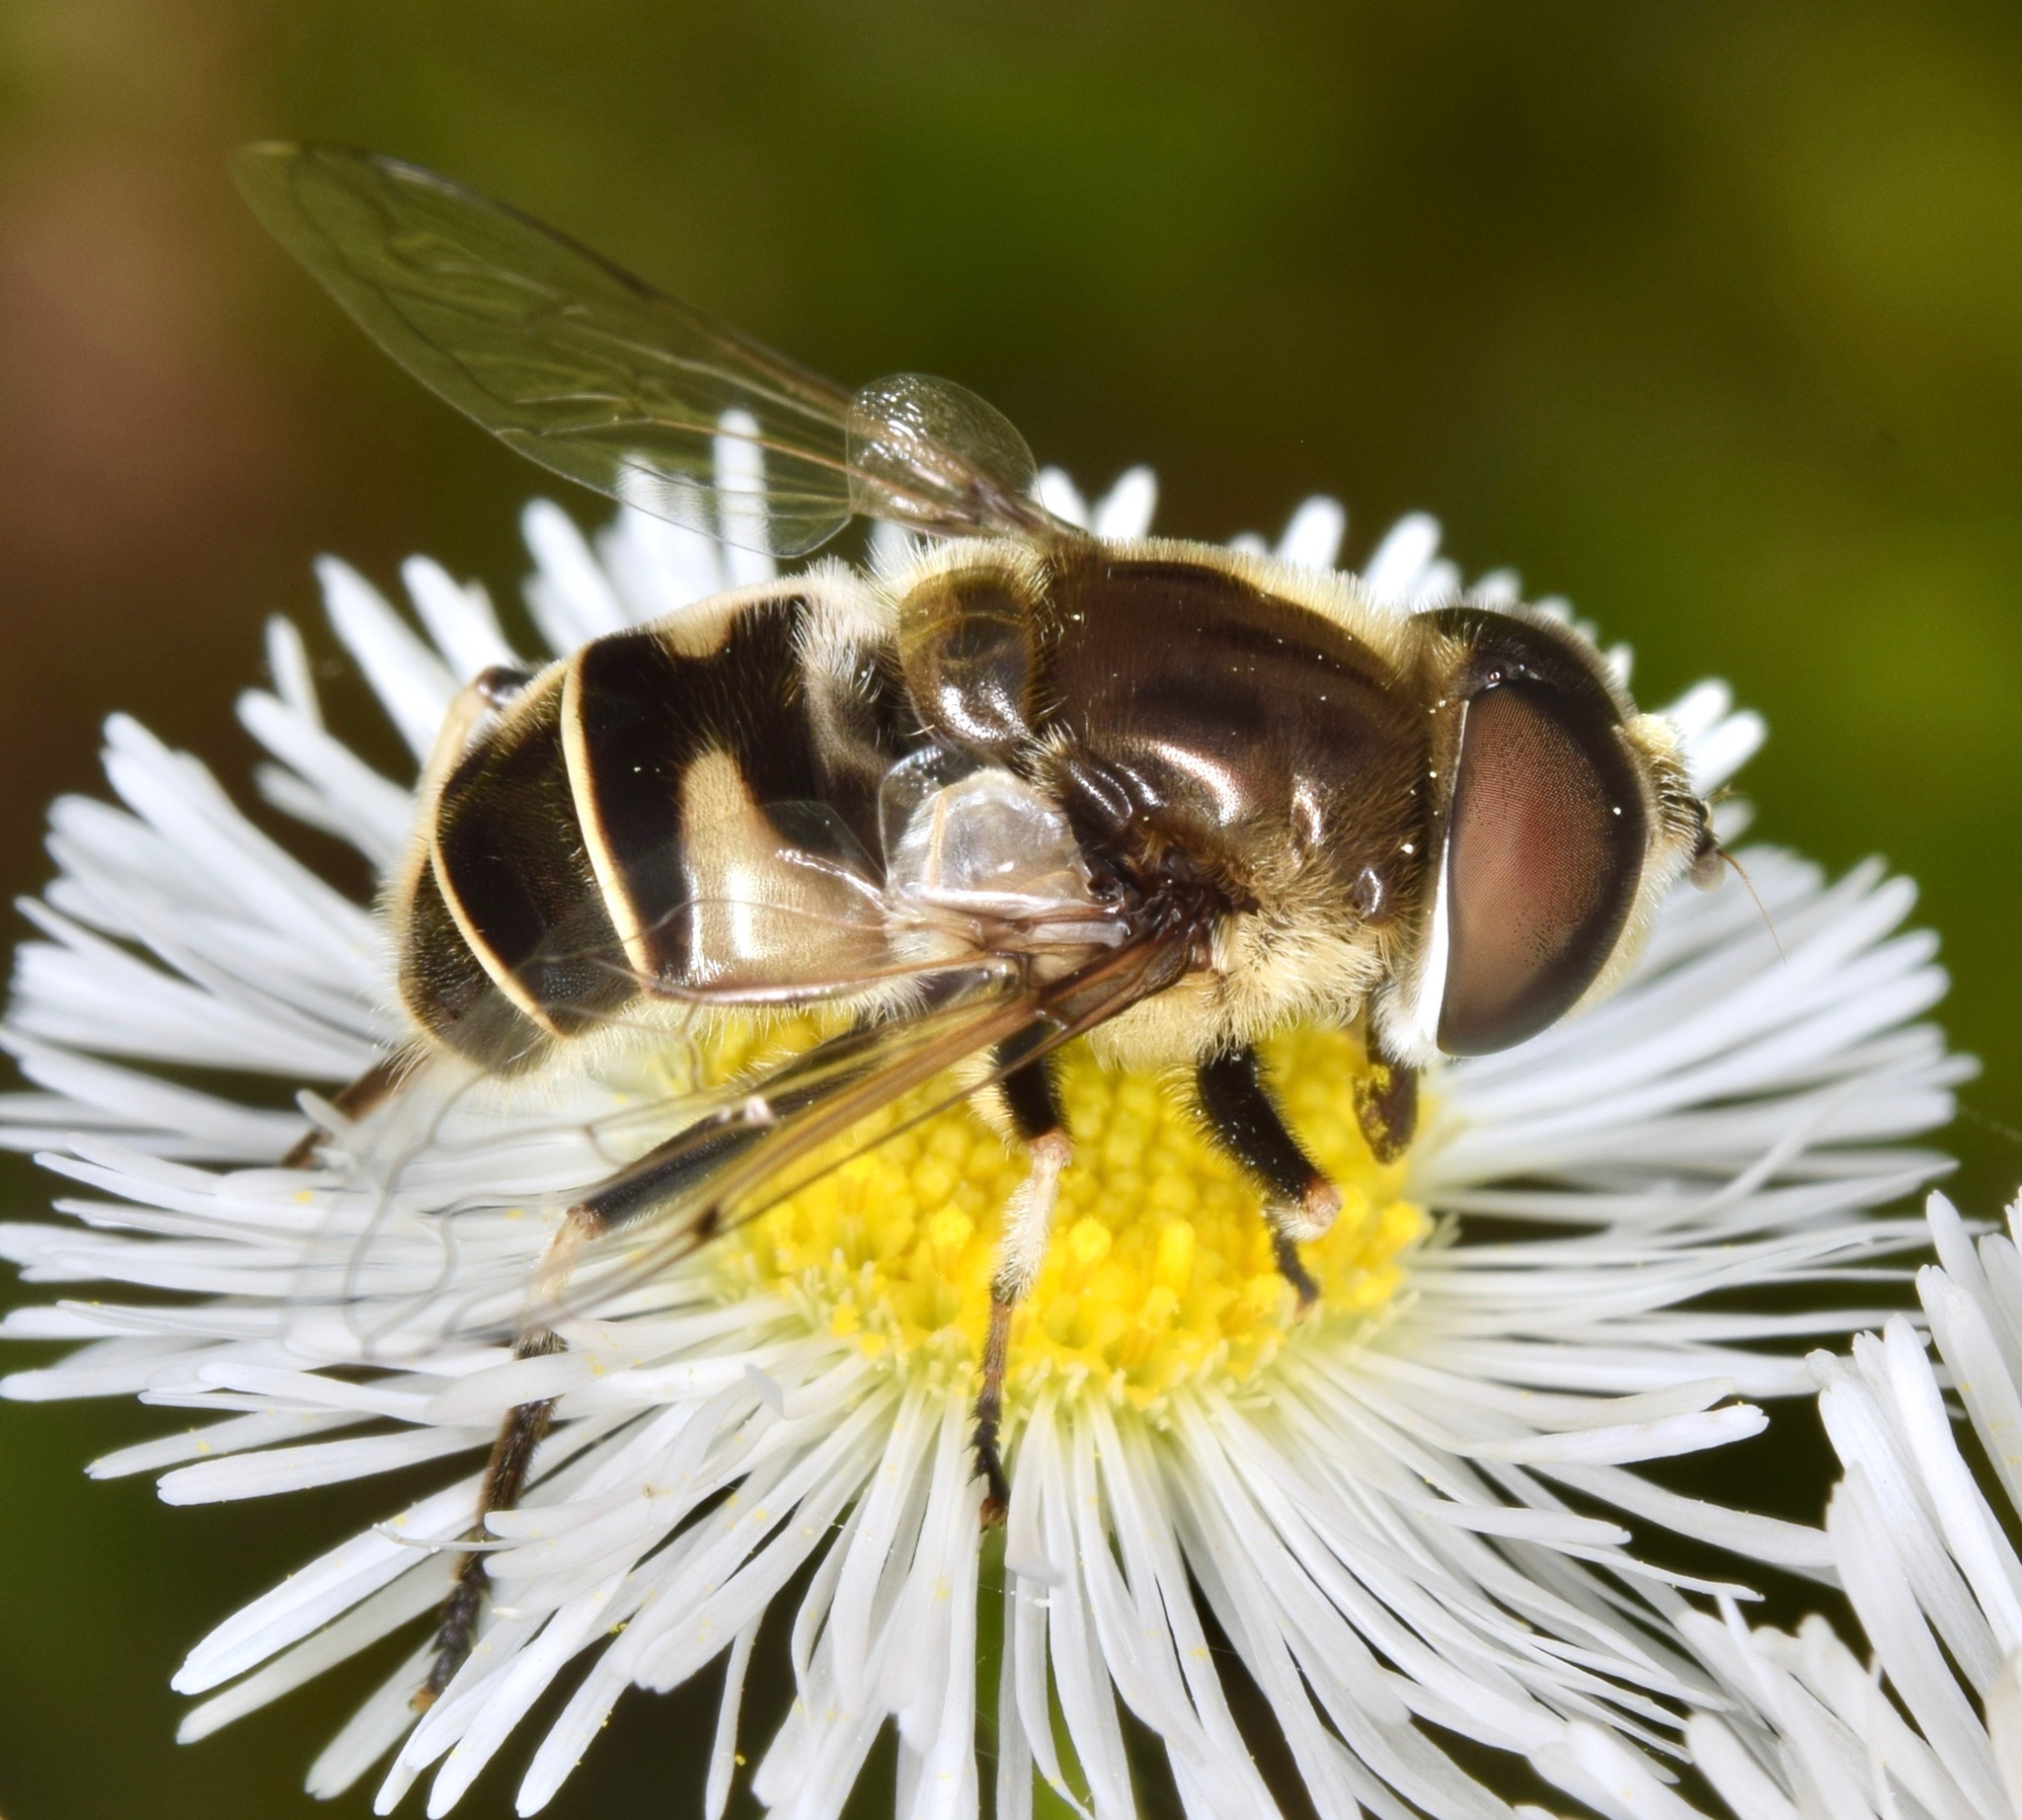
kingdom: Animalia
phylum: Arthropoda
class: Insecta
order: Diptera
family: Syrphidae
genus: Eristalis
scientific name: Eristalis dimidiata
